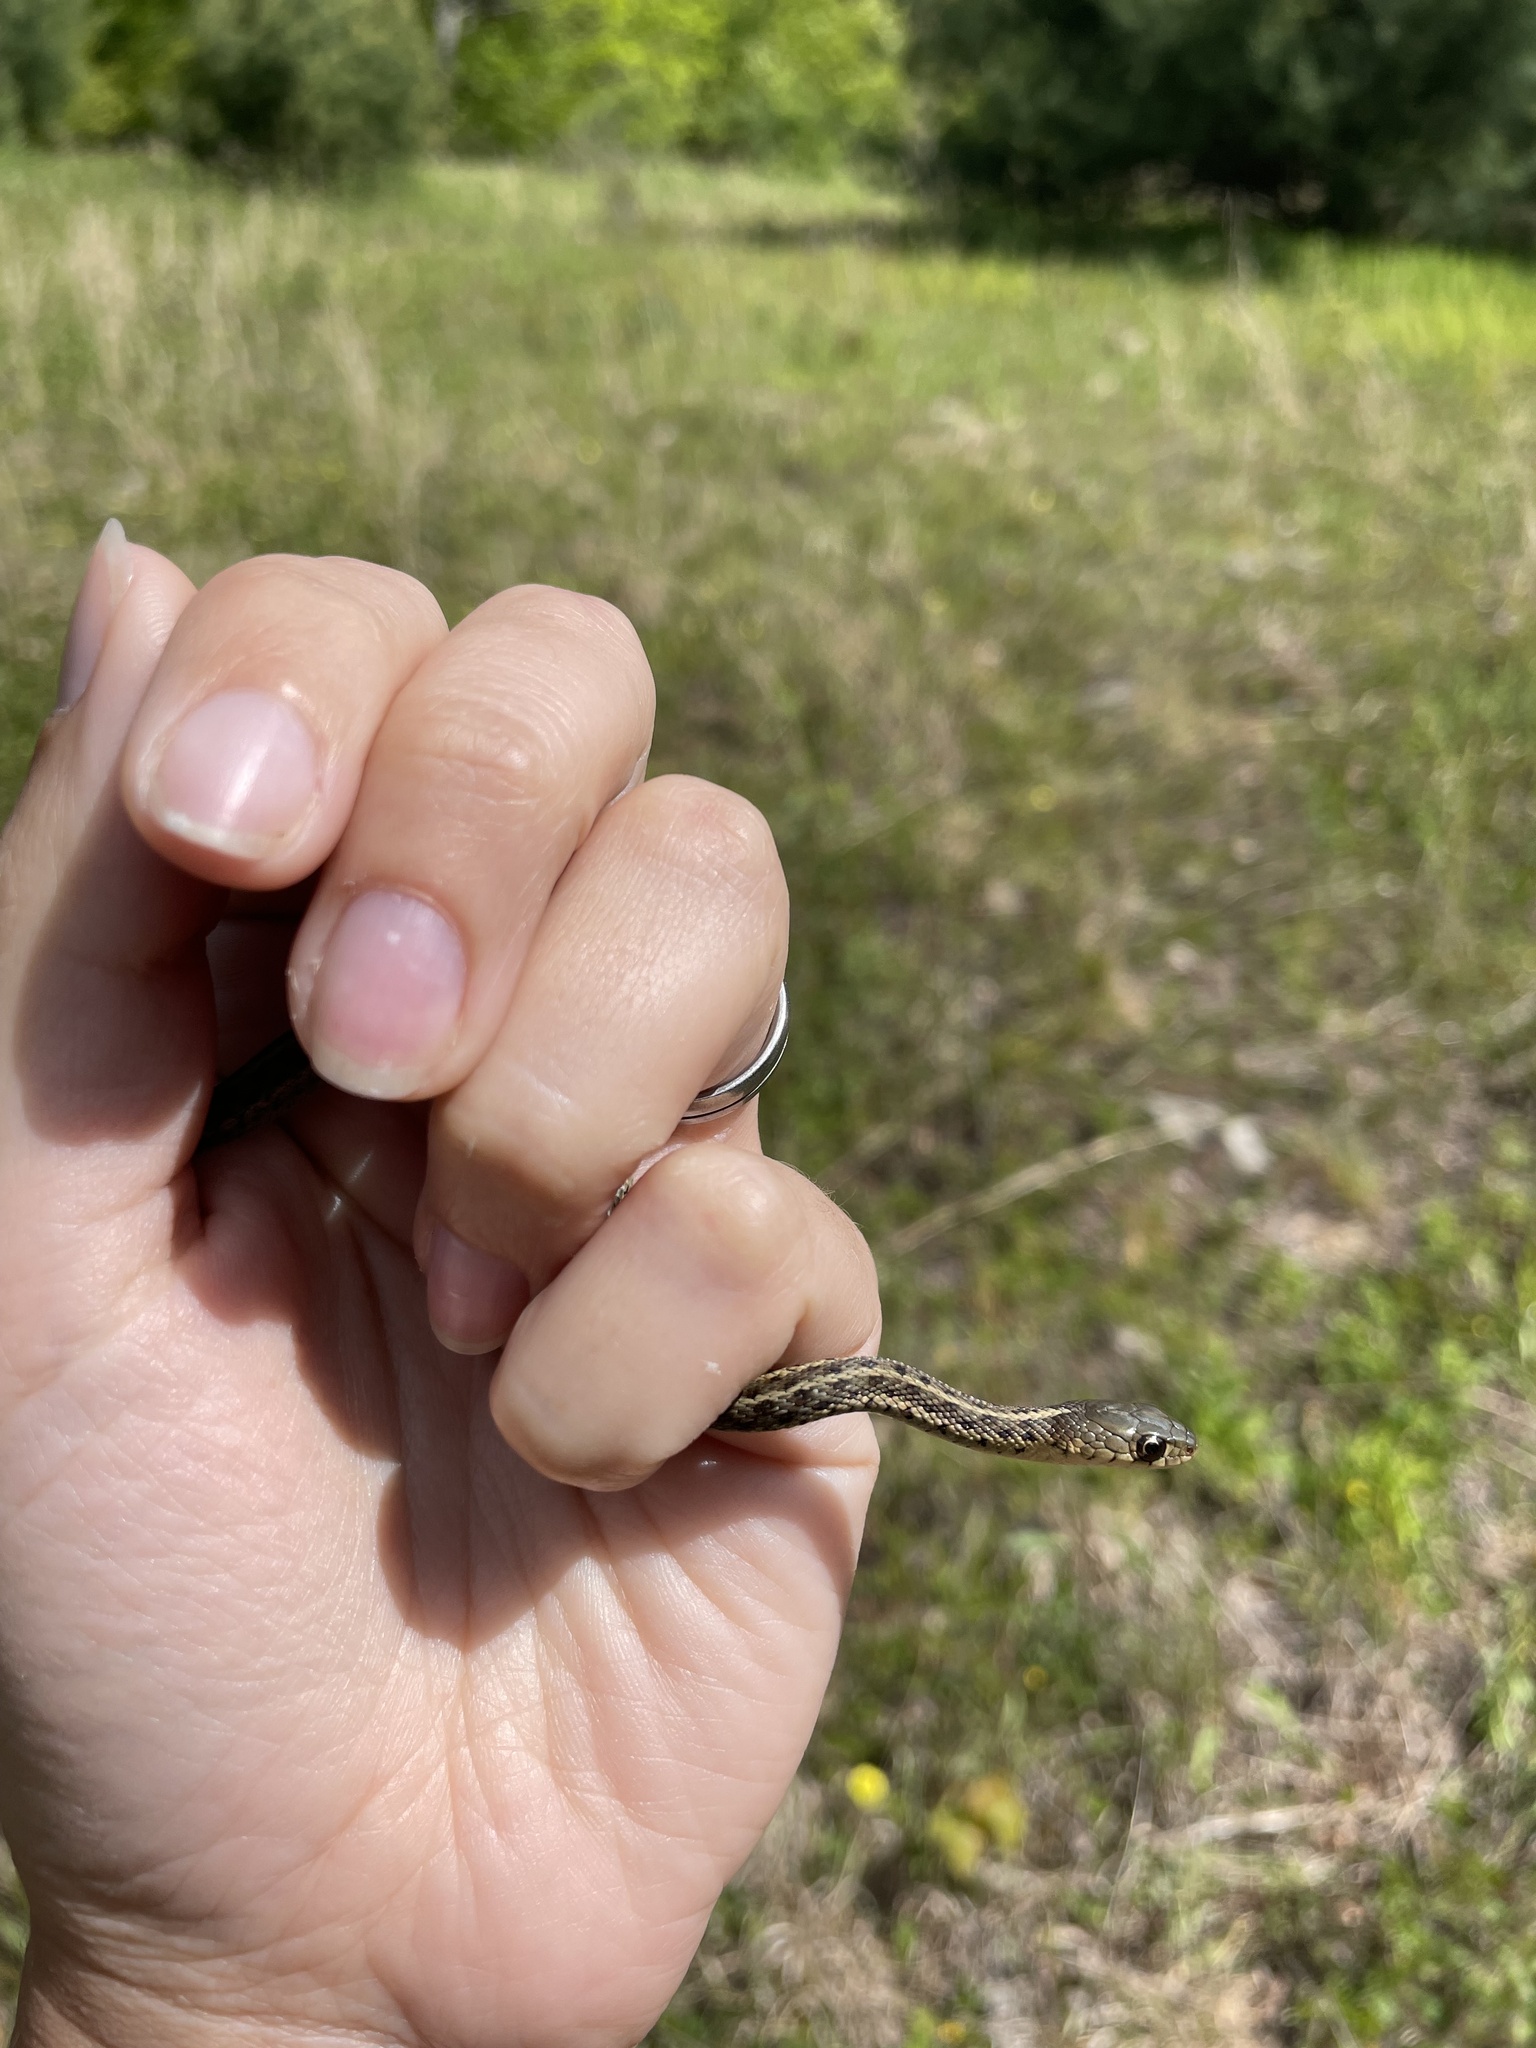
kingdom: Animalia
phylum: Chordata
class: Squamata
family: Colubridae
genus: Thamnophis
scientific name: Thamnophis sirtalis
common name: Common garter snake
